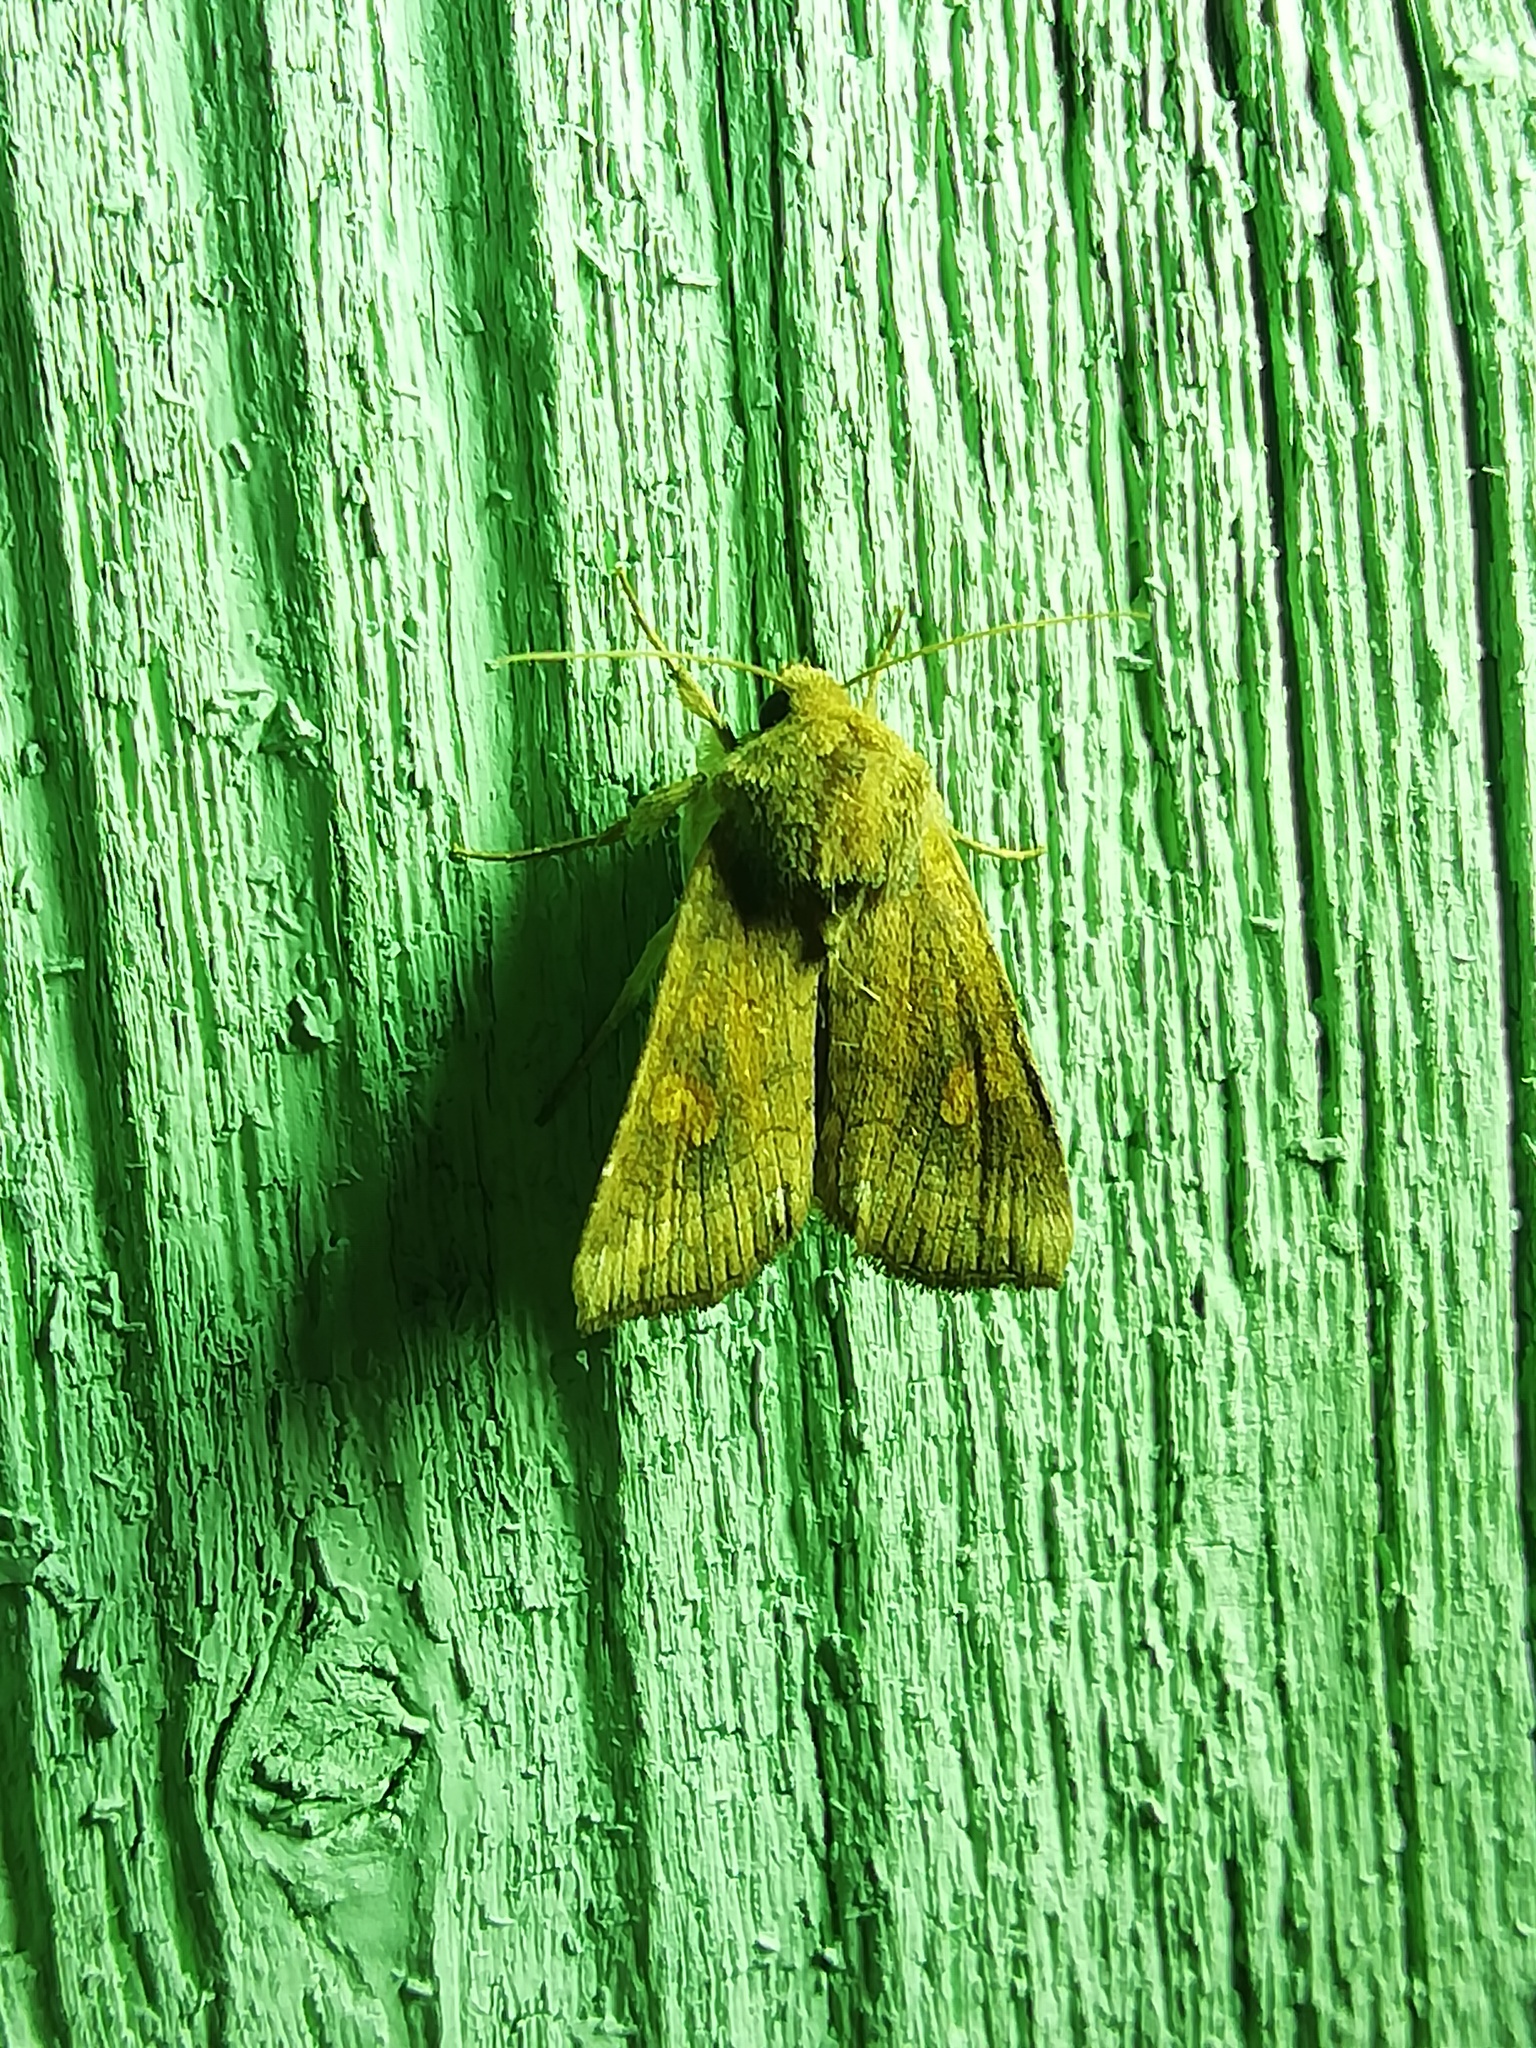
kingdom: Animalia
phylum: Arthropoda
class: Insecta
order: Lepidoptera
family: Noctuidae
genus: Amphipoea
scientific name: Amphipoea fucosa
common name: Saltern ear
